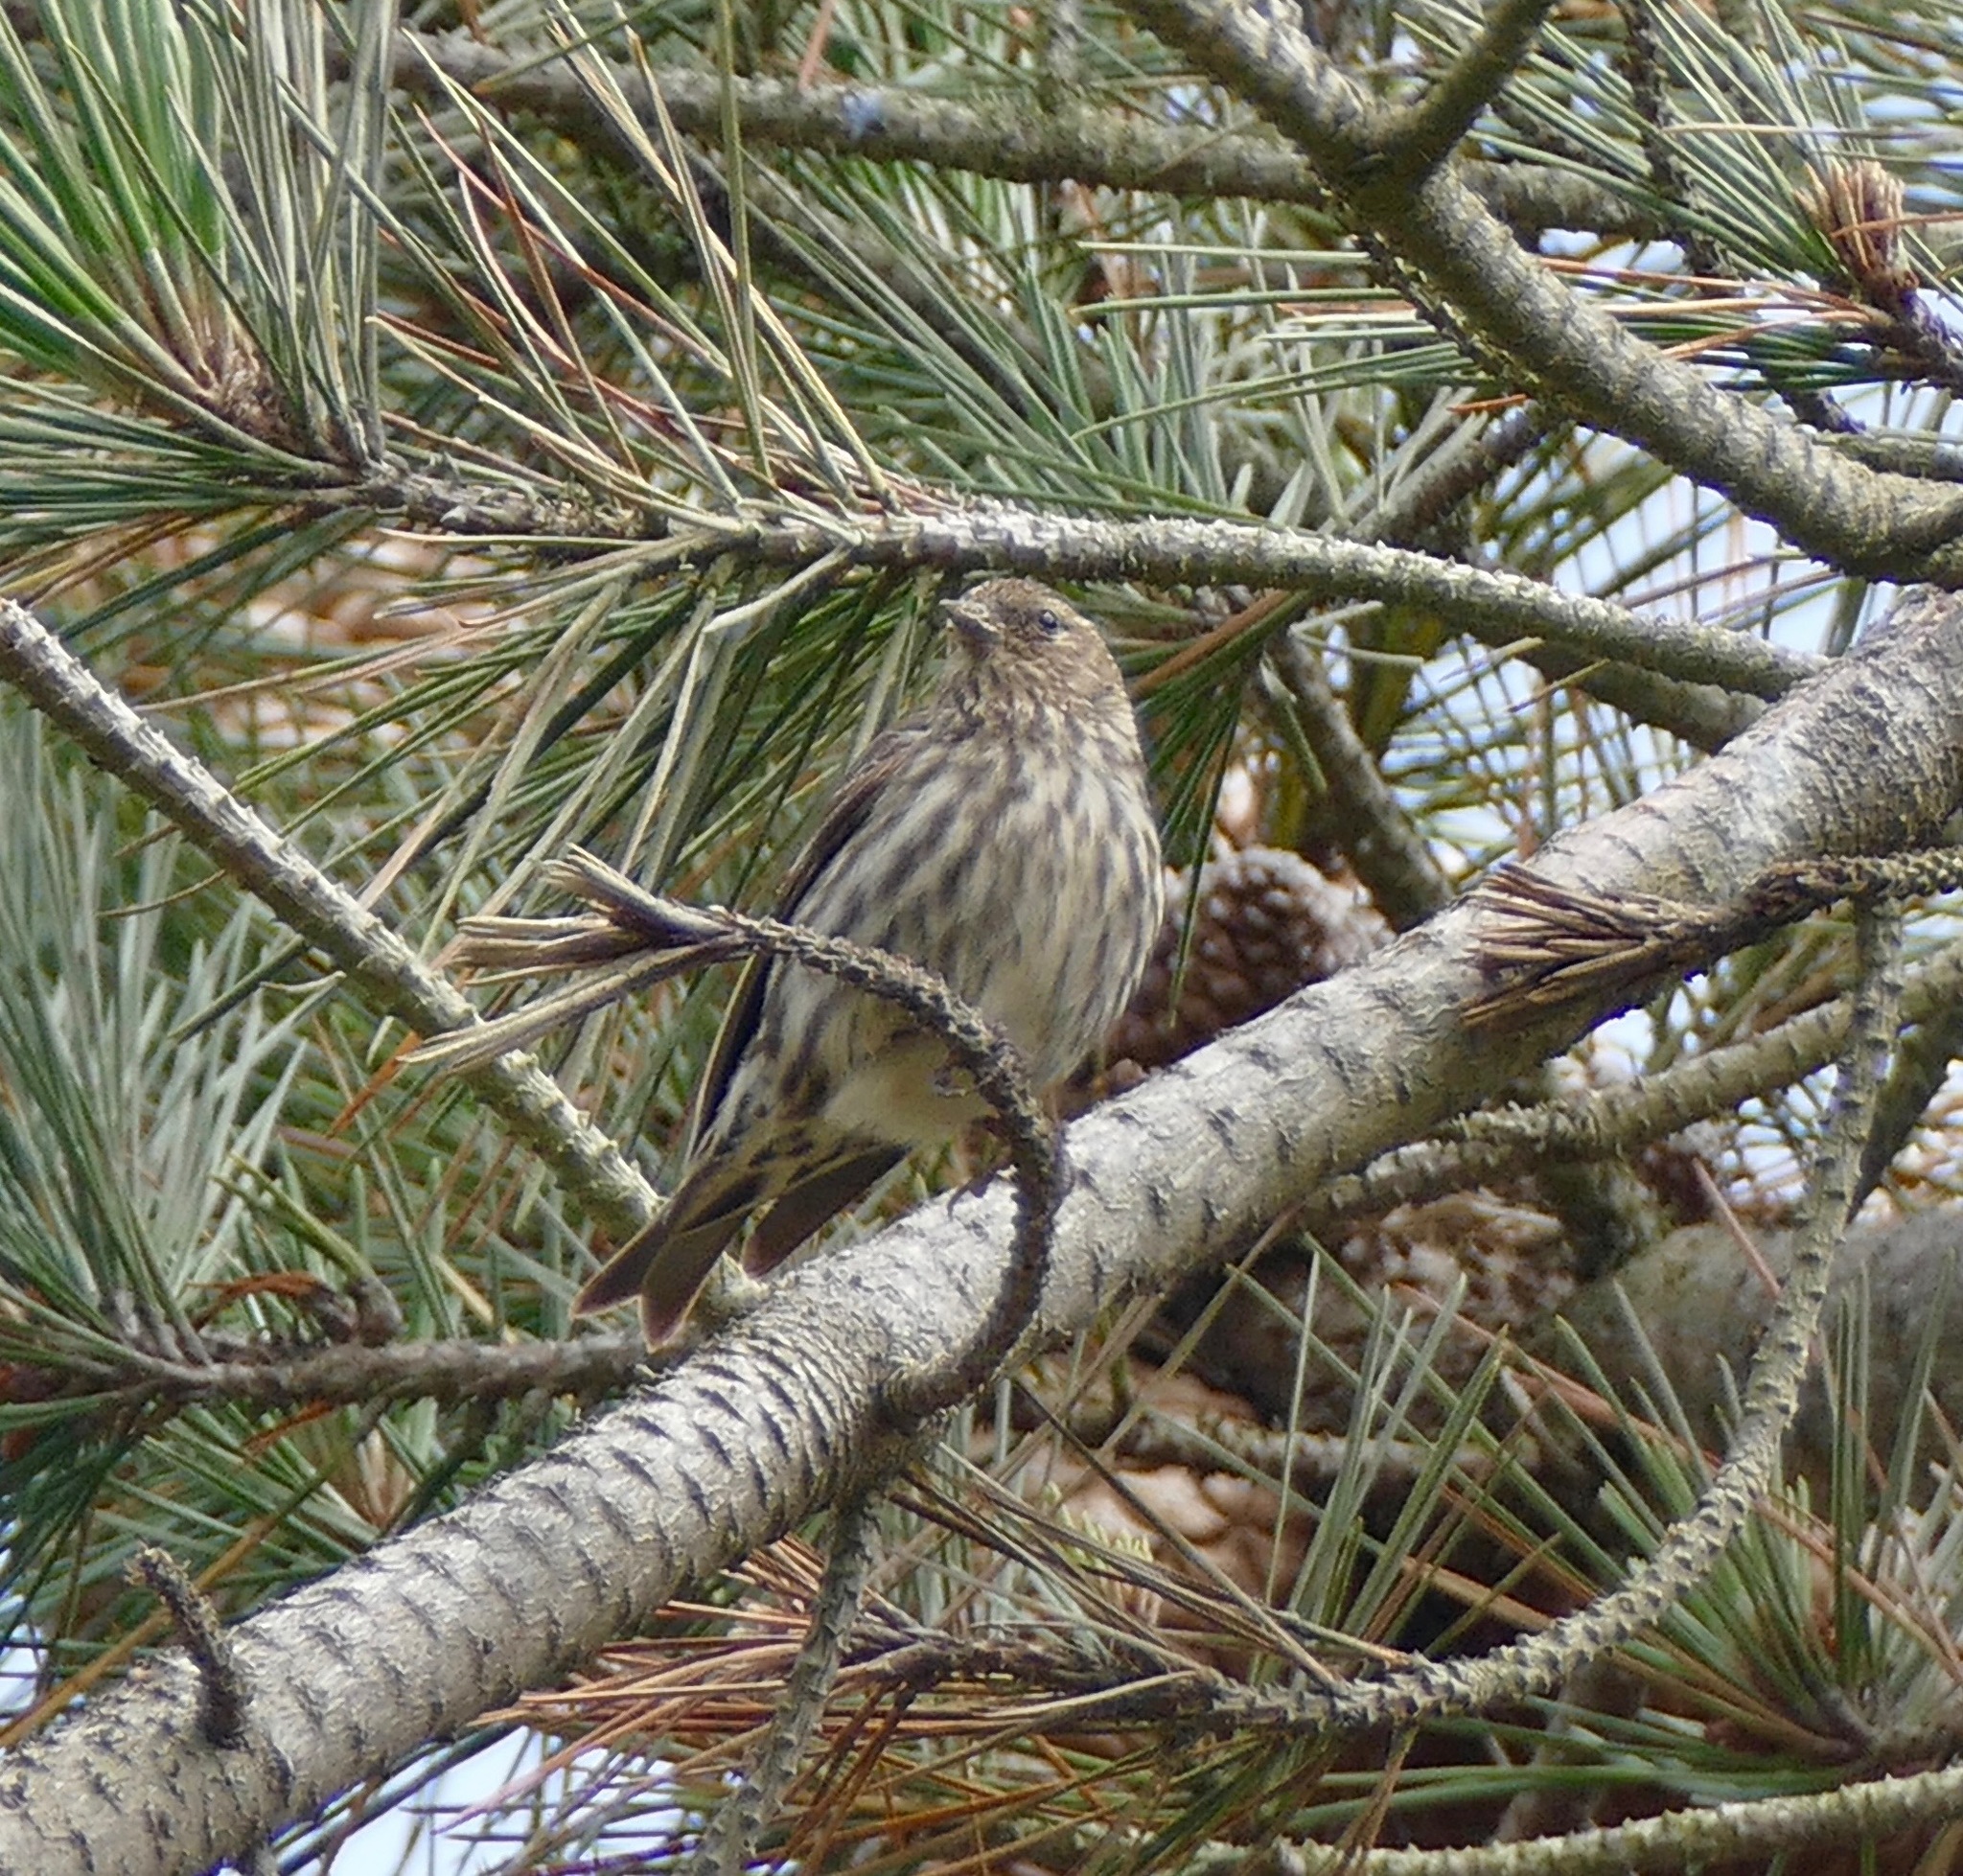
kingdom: Animalia
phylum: Chordata
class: Aves
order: Passeriformes
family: Fringillidae
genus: Spinus
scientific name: Spinus pinus
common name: Pine siskin
